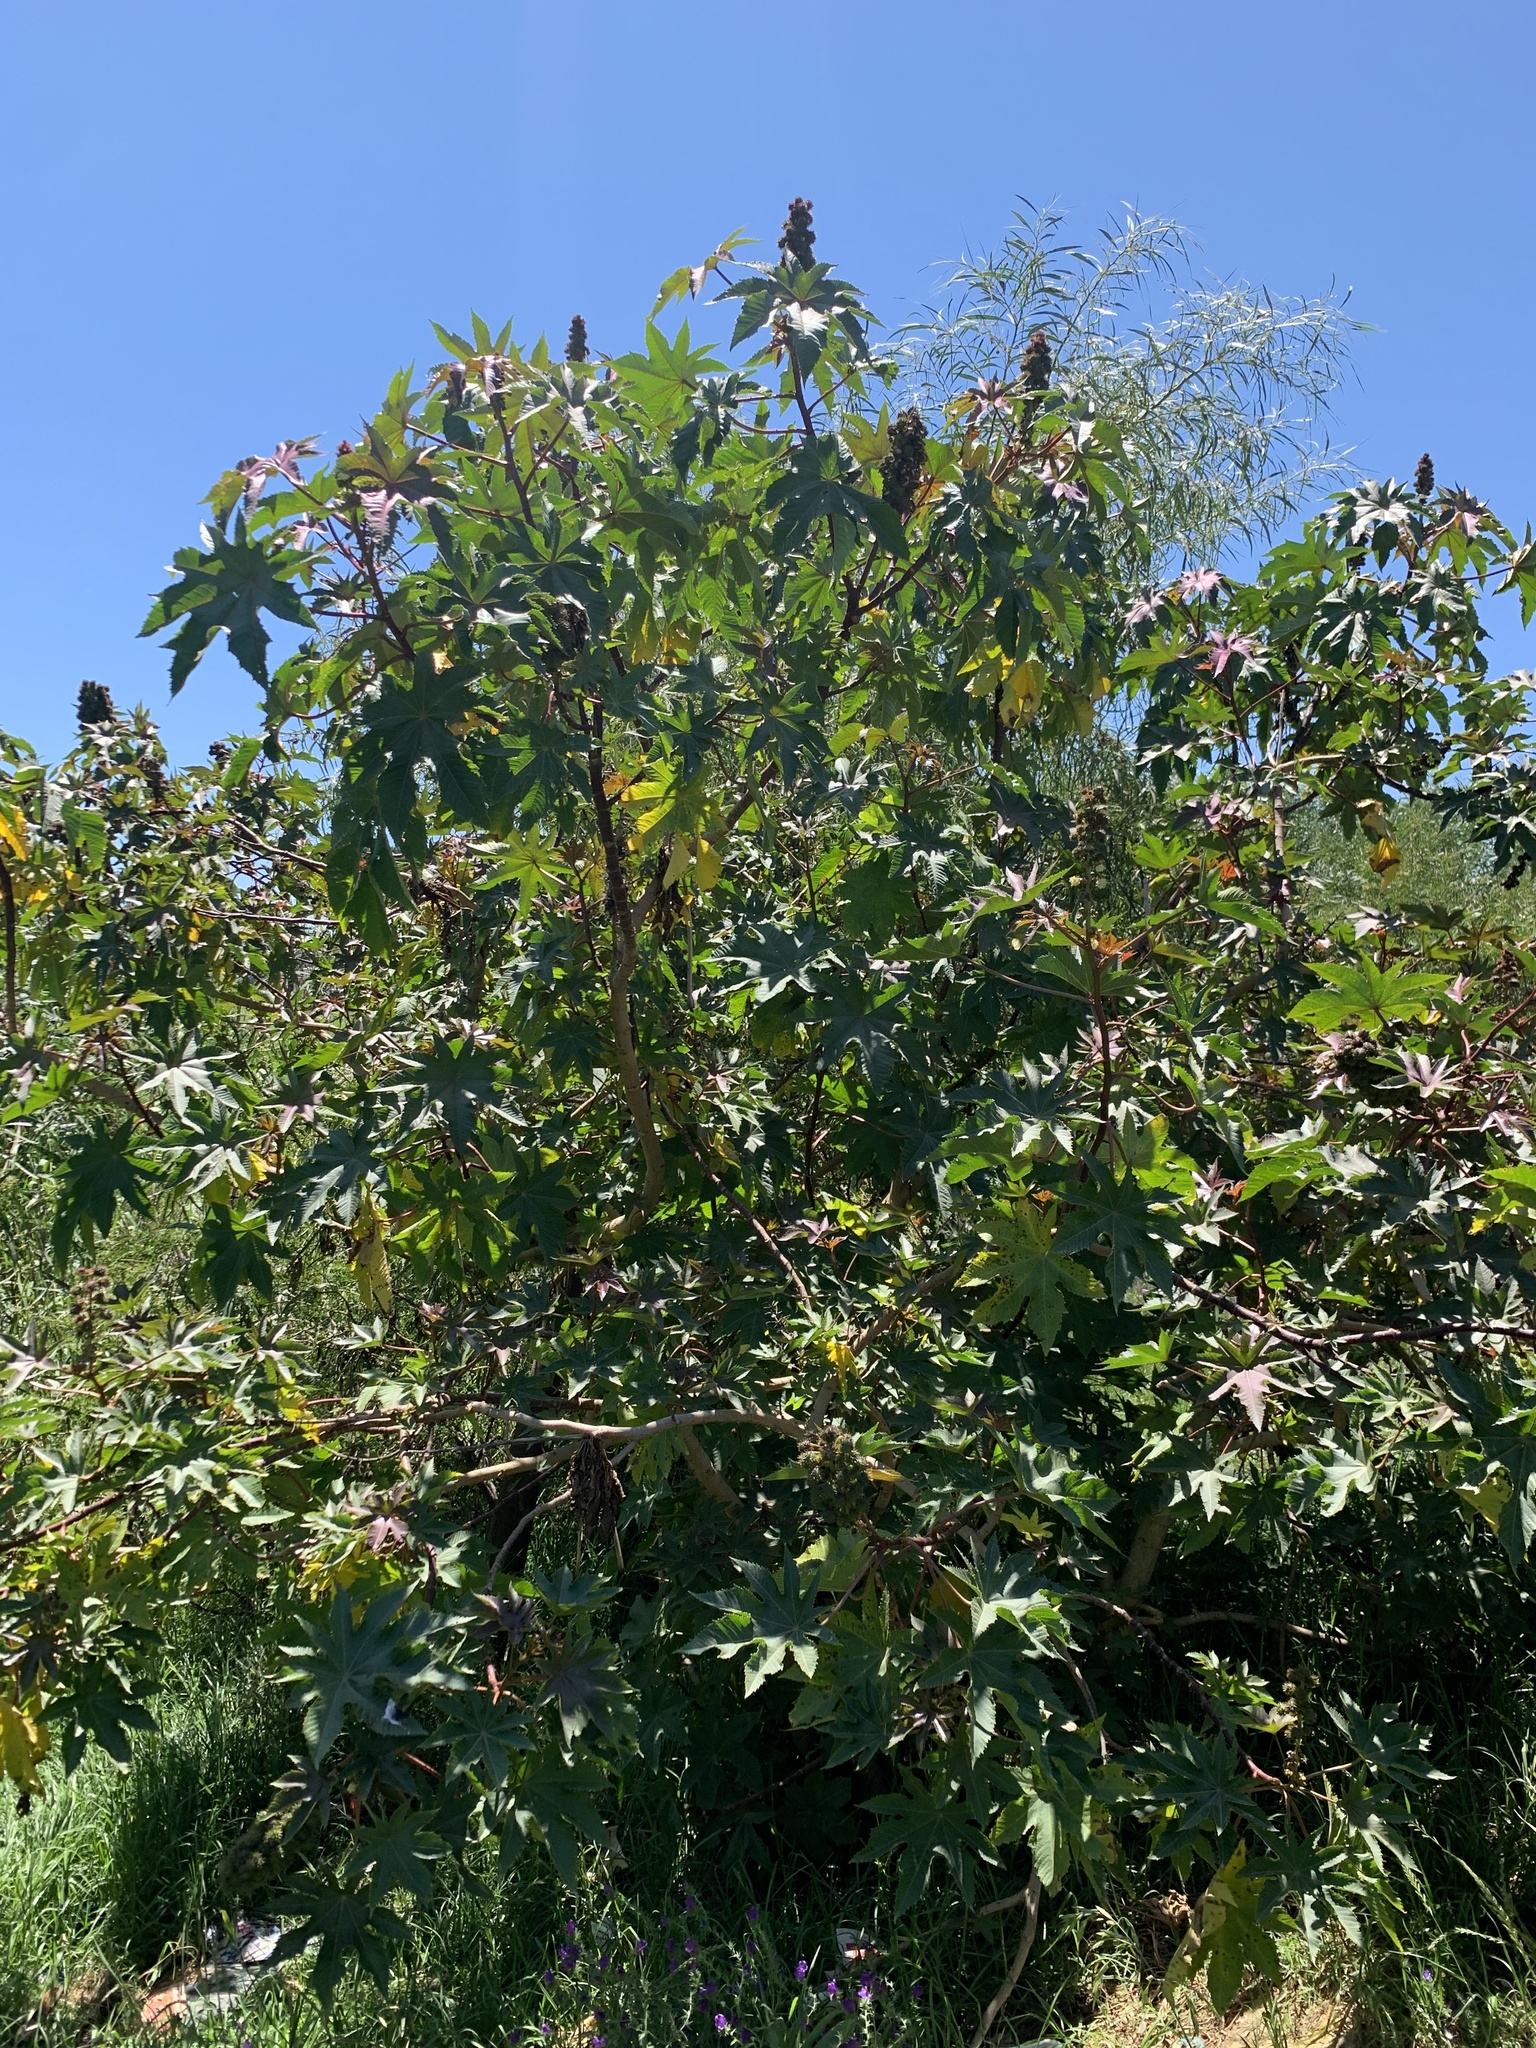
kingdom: Plantae
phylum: Tracheophyta
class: Magnoliopsida
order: Malpighiales
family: Euphorbiaceae
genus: Ricinus
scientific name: Ricinus communis
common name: Castor-oil-plant
